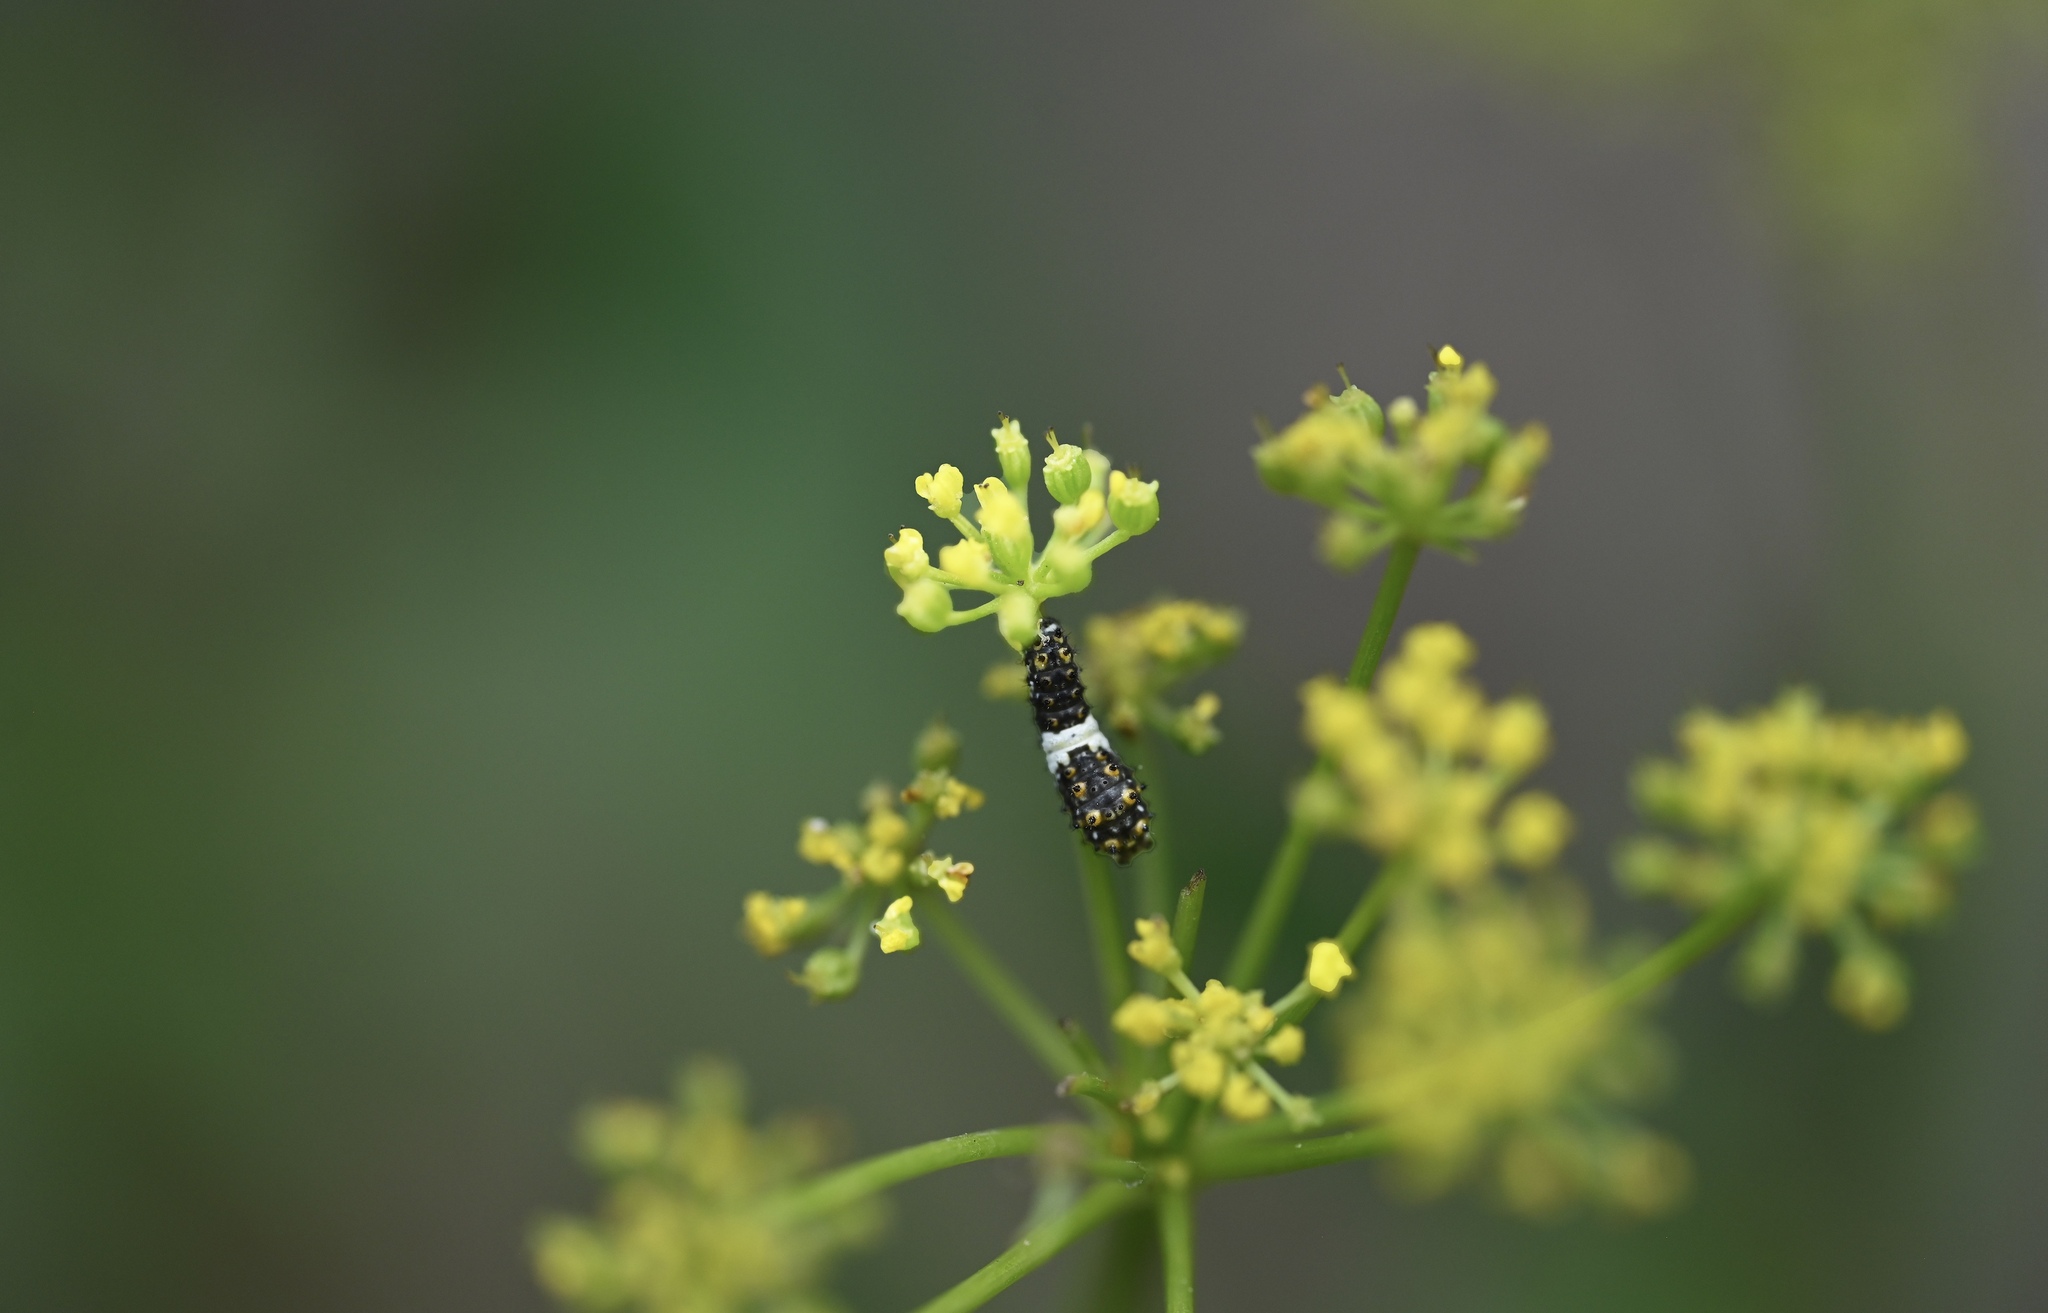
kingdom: Animalia
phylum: Arthropoda
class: Insecta
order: Lepidoptera
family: Papilionidae
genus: Papilio
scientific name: Papilio polyxenes
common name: Black swallowtail
